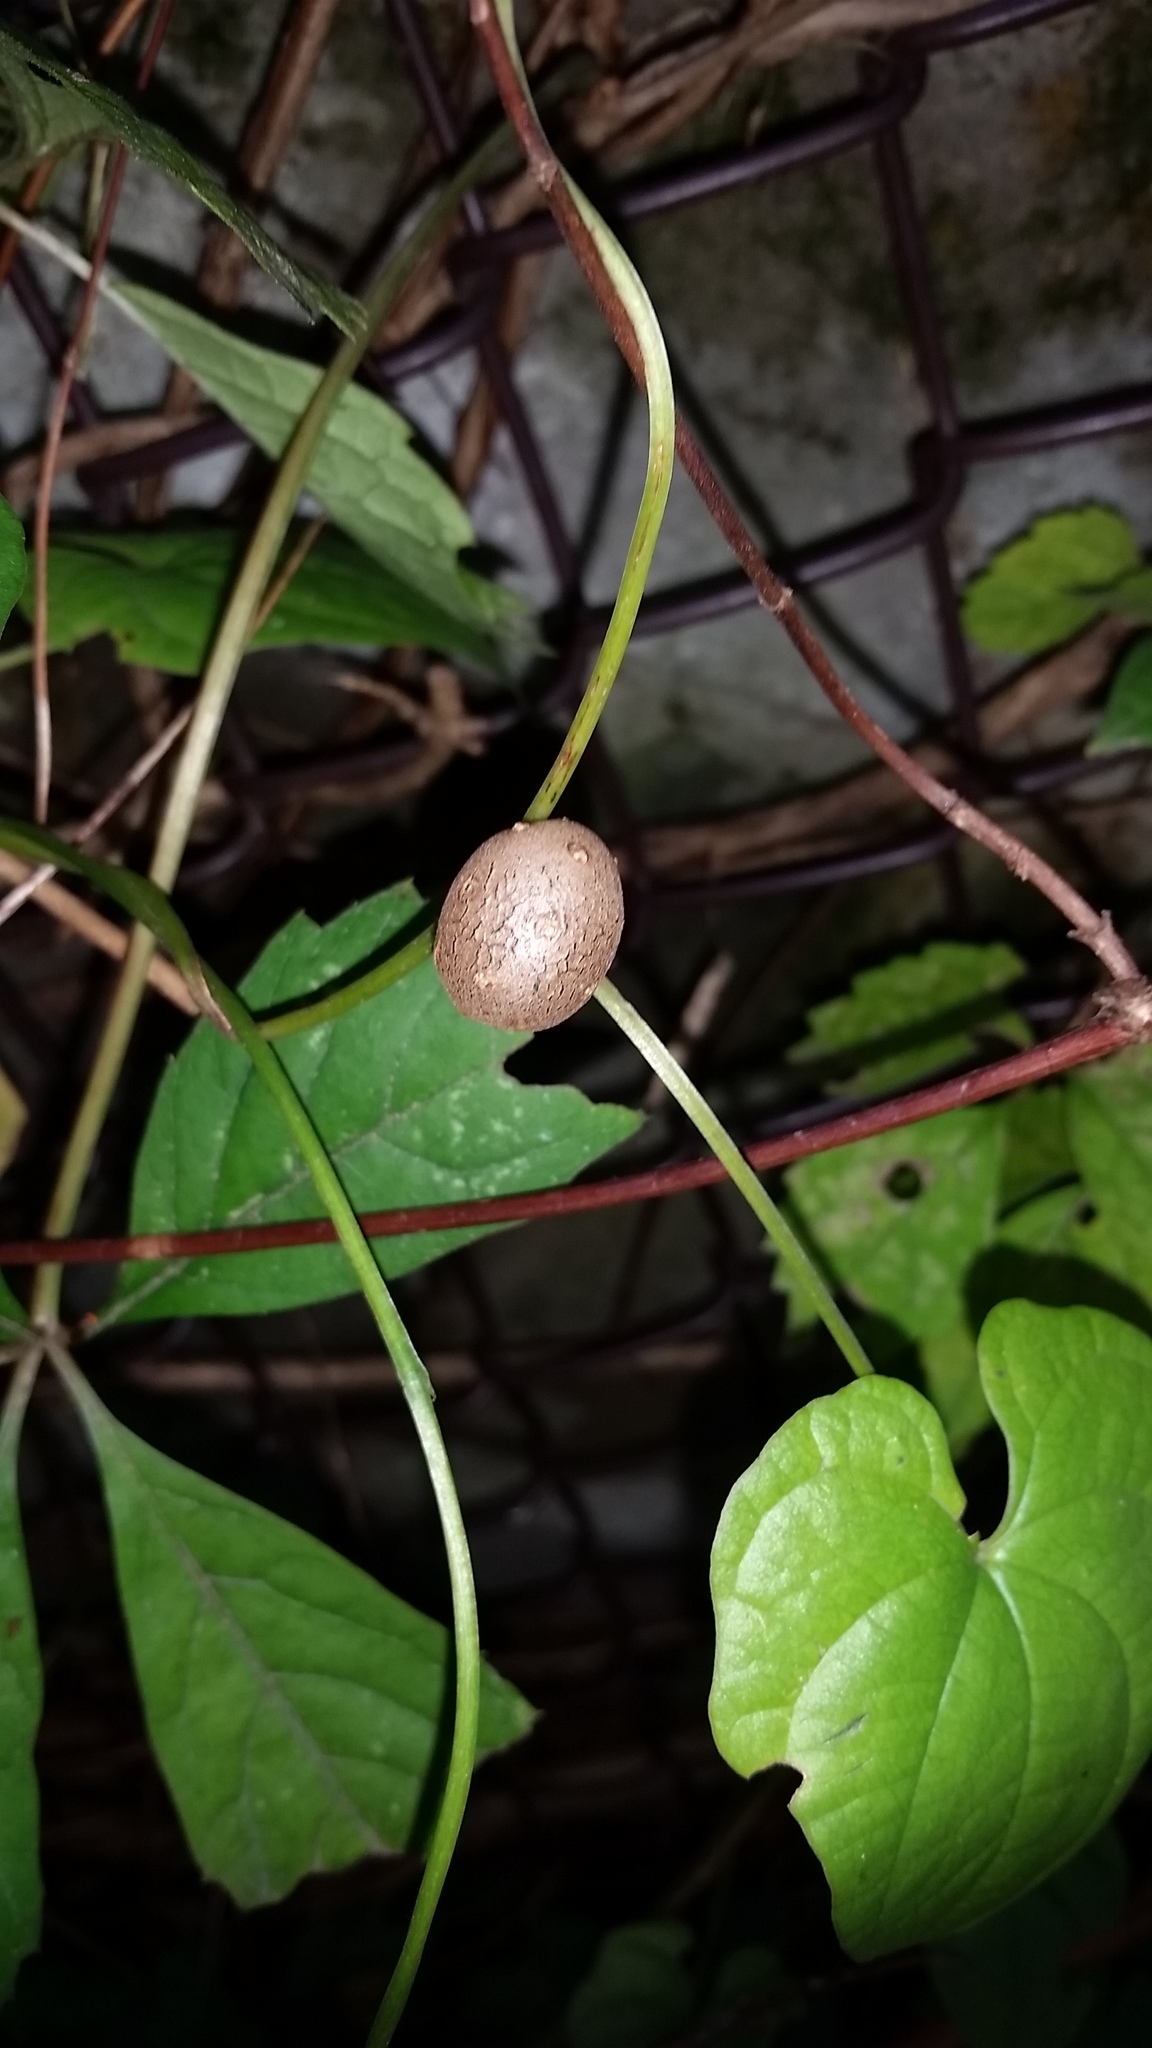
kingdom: Plantae
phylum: Tracheophyta
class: Liliopsida
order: Dioscoreales
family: Dioscoreaceae
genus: Dioscorea
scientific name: Dioscorea polystachya
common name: Chinese yam
